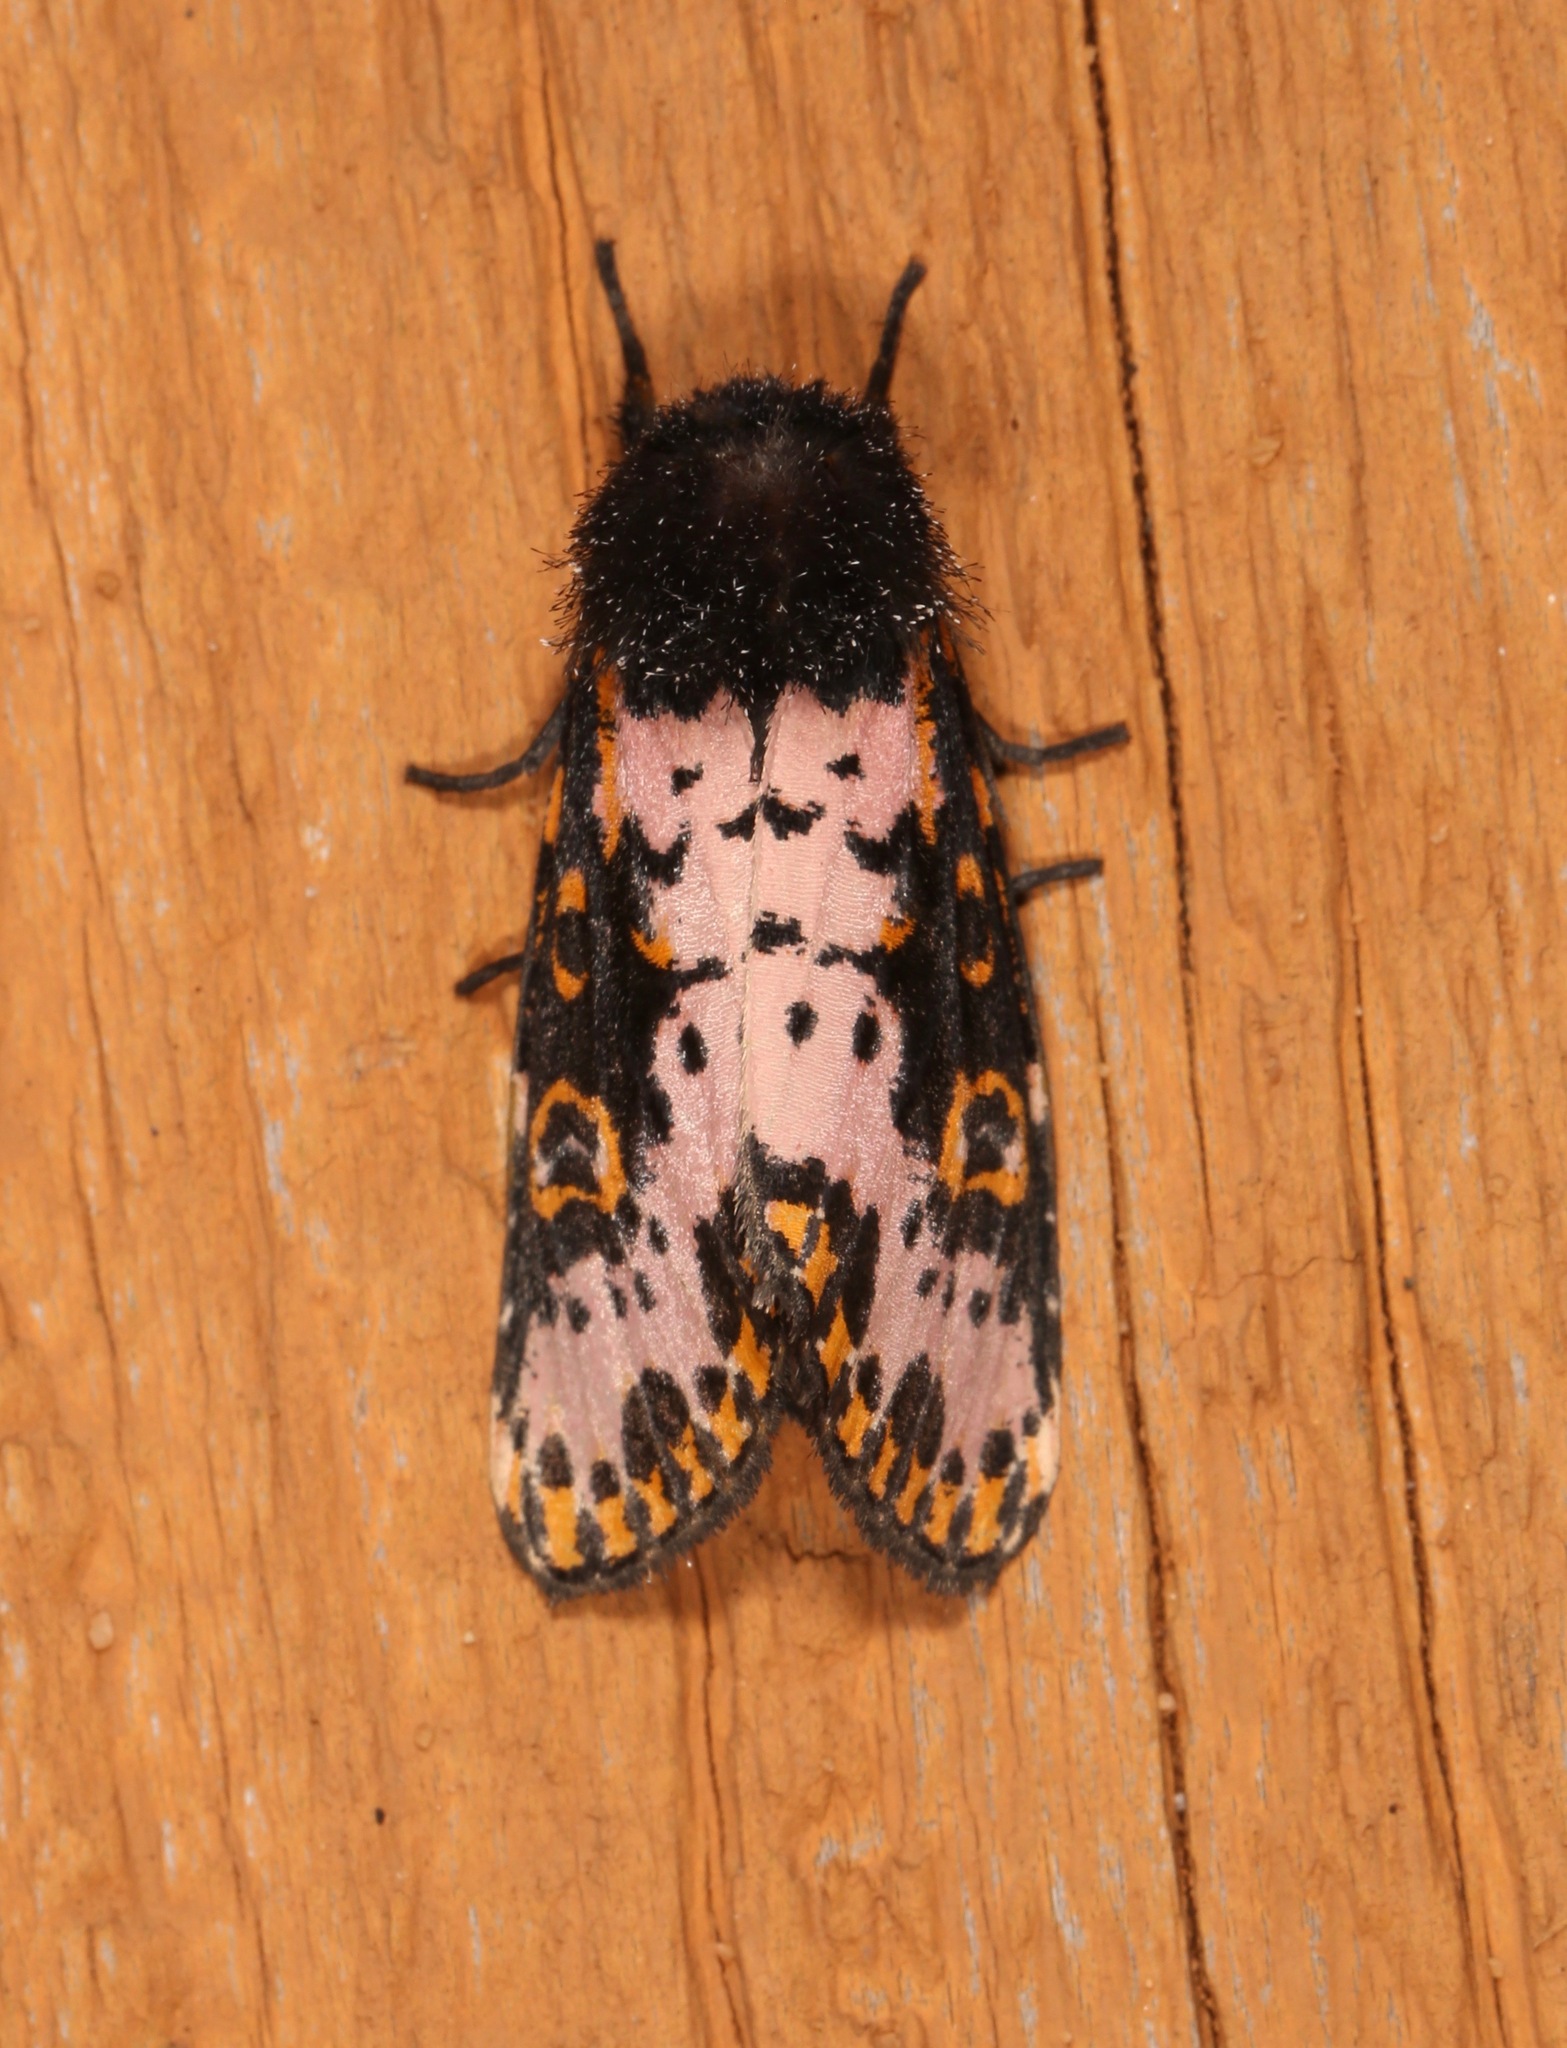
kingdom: Animalia
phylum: Arthropoda
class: Insecta
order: Lepidoptera
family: Noctuidae
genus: Xanthopastis
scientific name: Xanthopastis regnatrix
